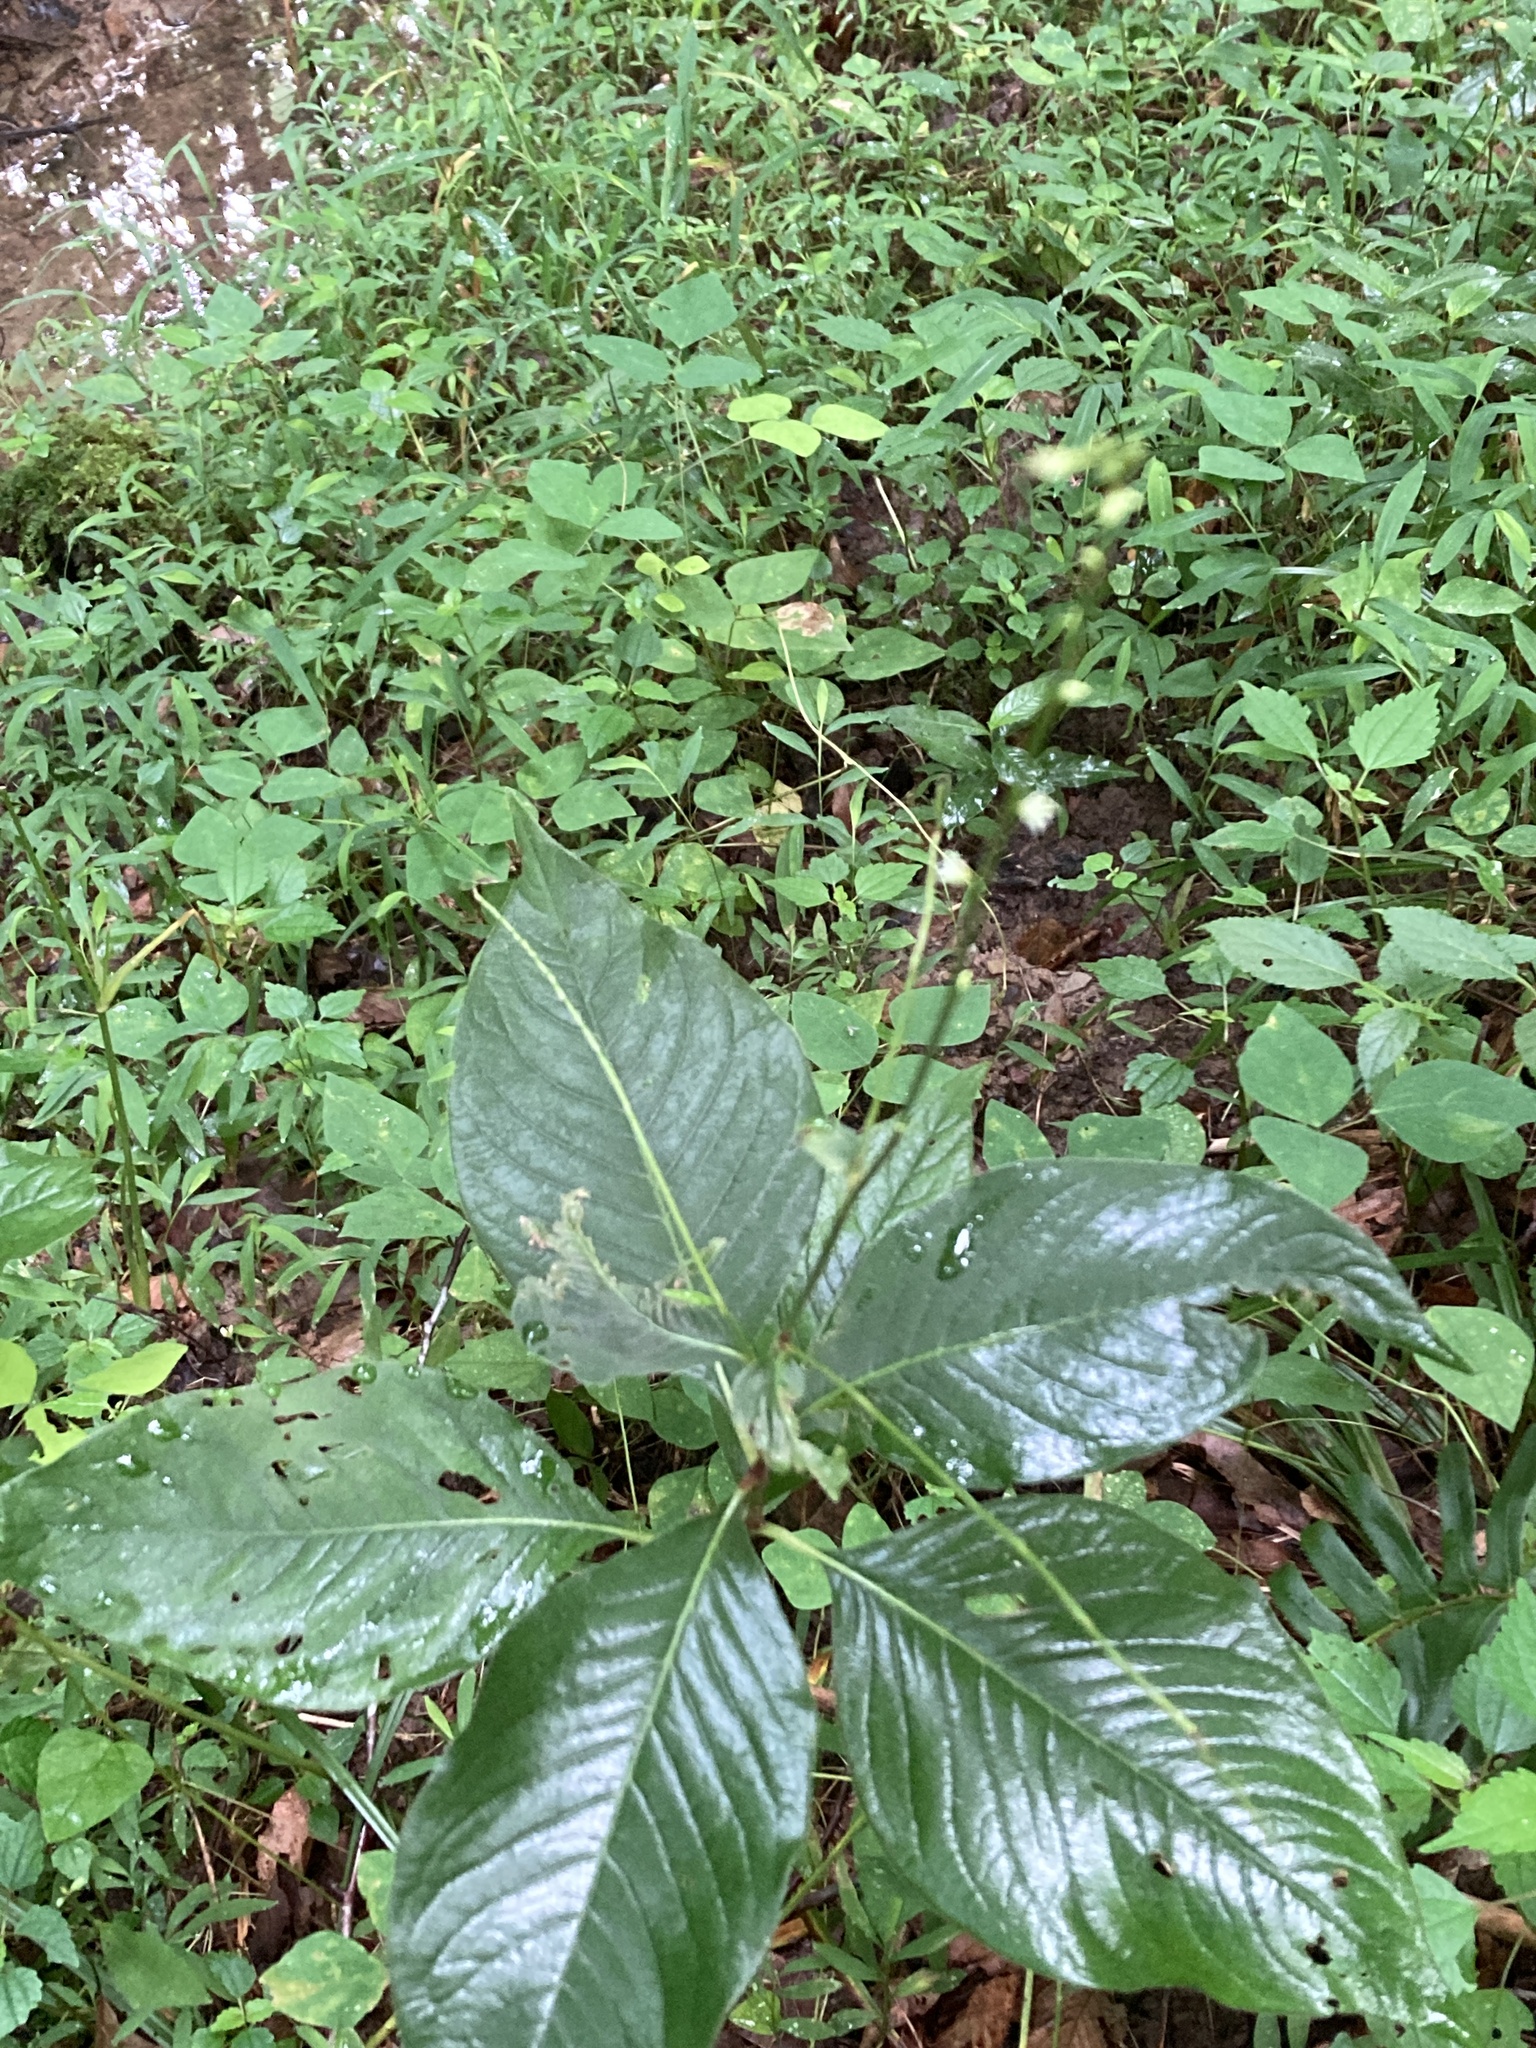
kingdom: Plantae
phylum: Tracheophyta
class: Magnoliopsida
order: Caryophyllales
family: Polygonaceae
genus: Persicaria
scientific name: Persicaria virginiana
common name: Jumpseed
